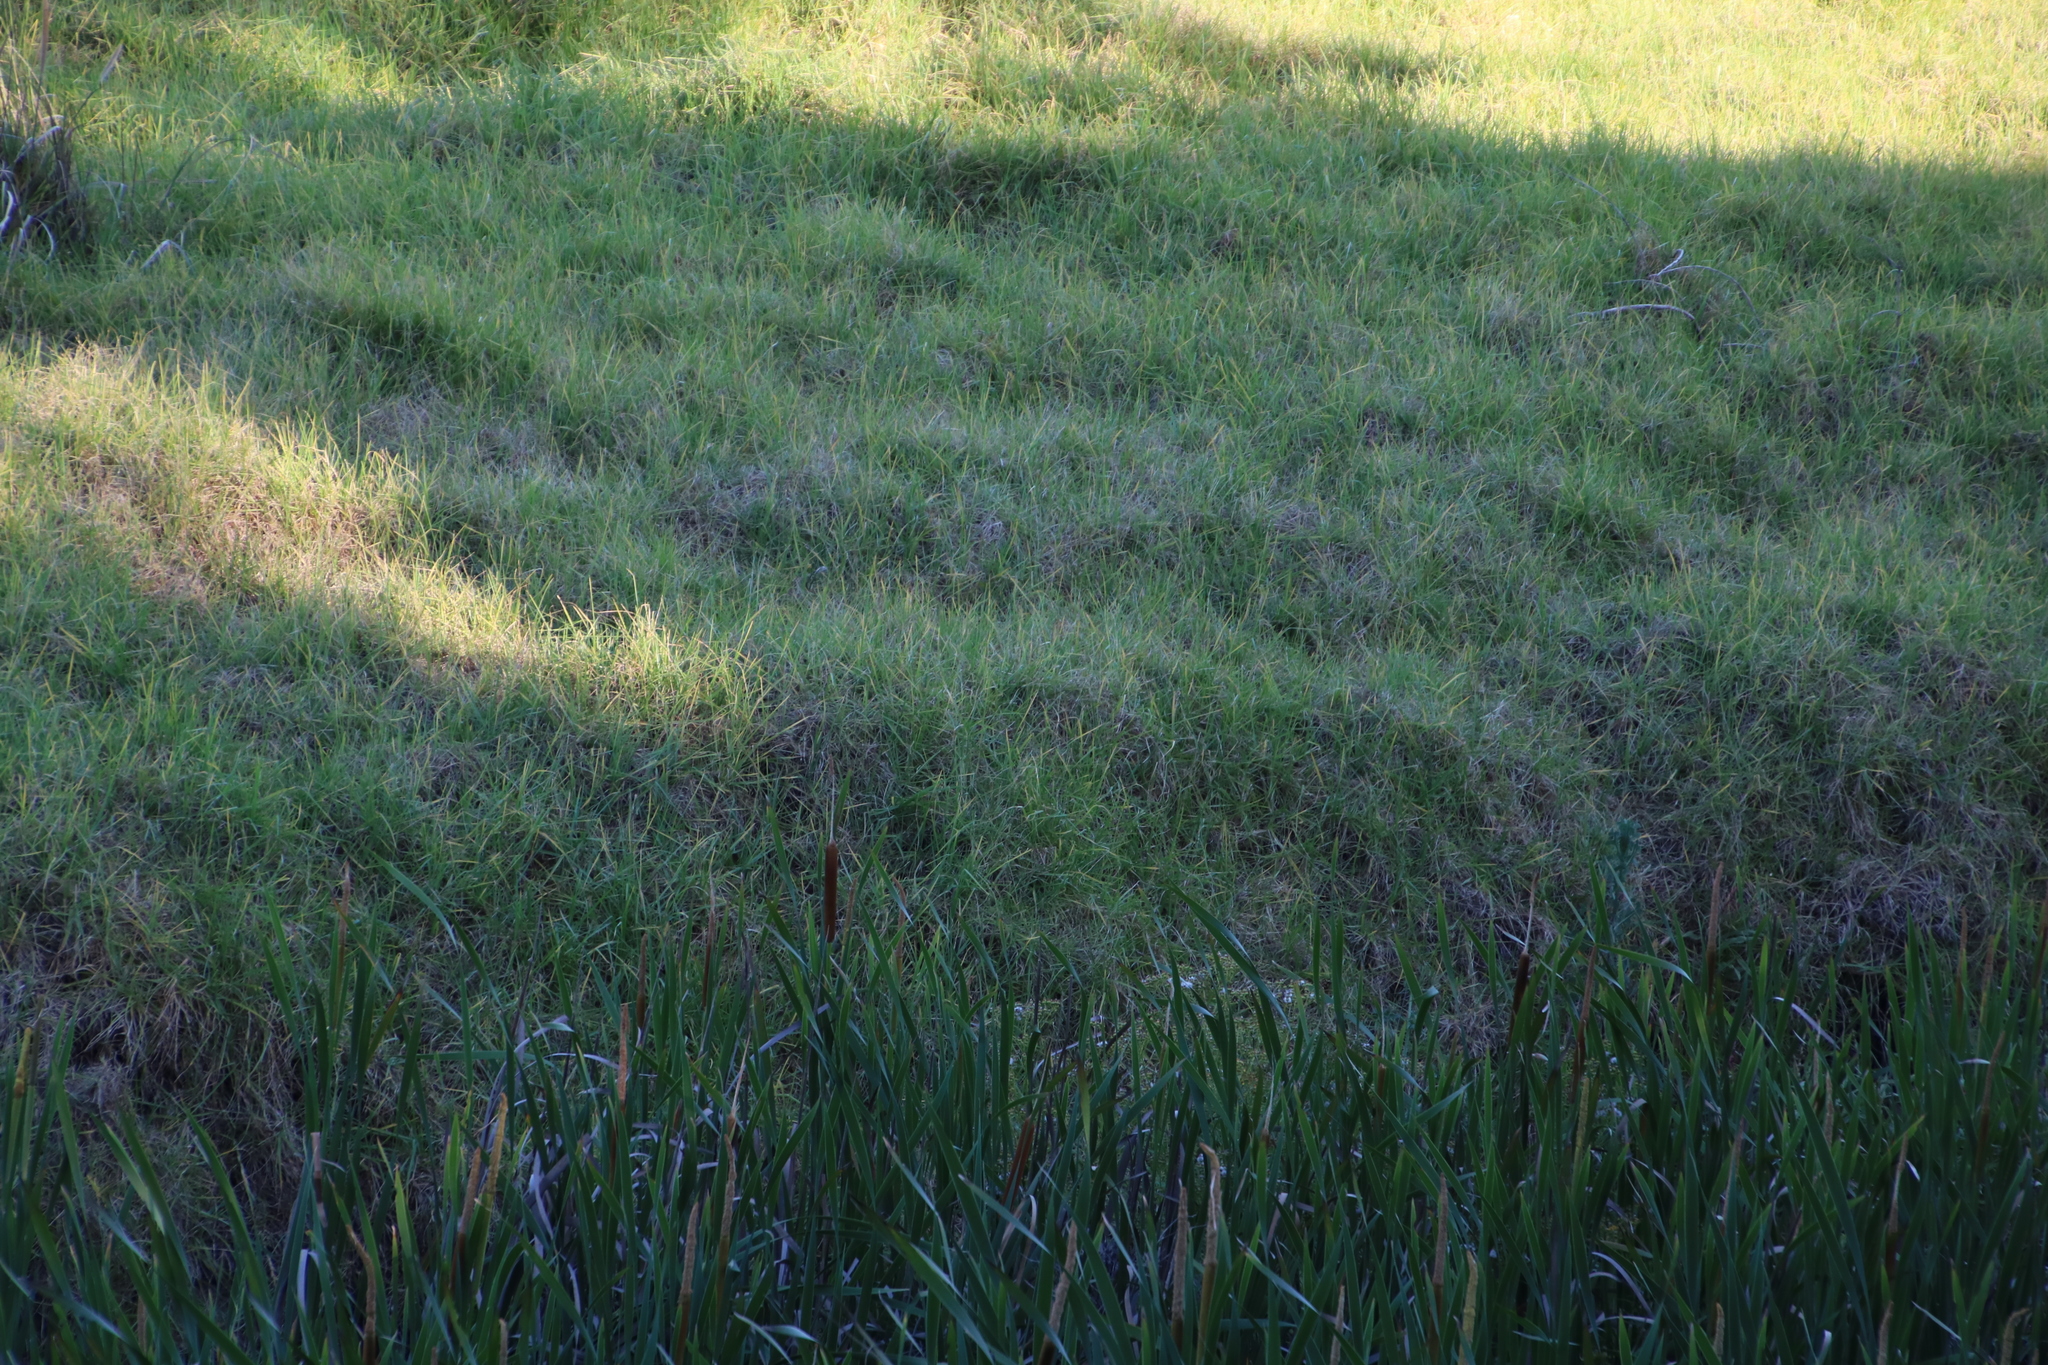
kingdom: Plantae
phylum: Tracheophyta
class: Liliopsida
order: Poales
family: Poaceae
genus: Cenchrus
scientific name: Cenchrus clandestinus
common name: Kikuyugrass
